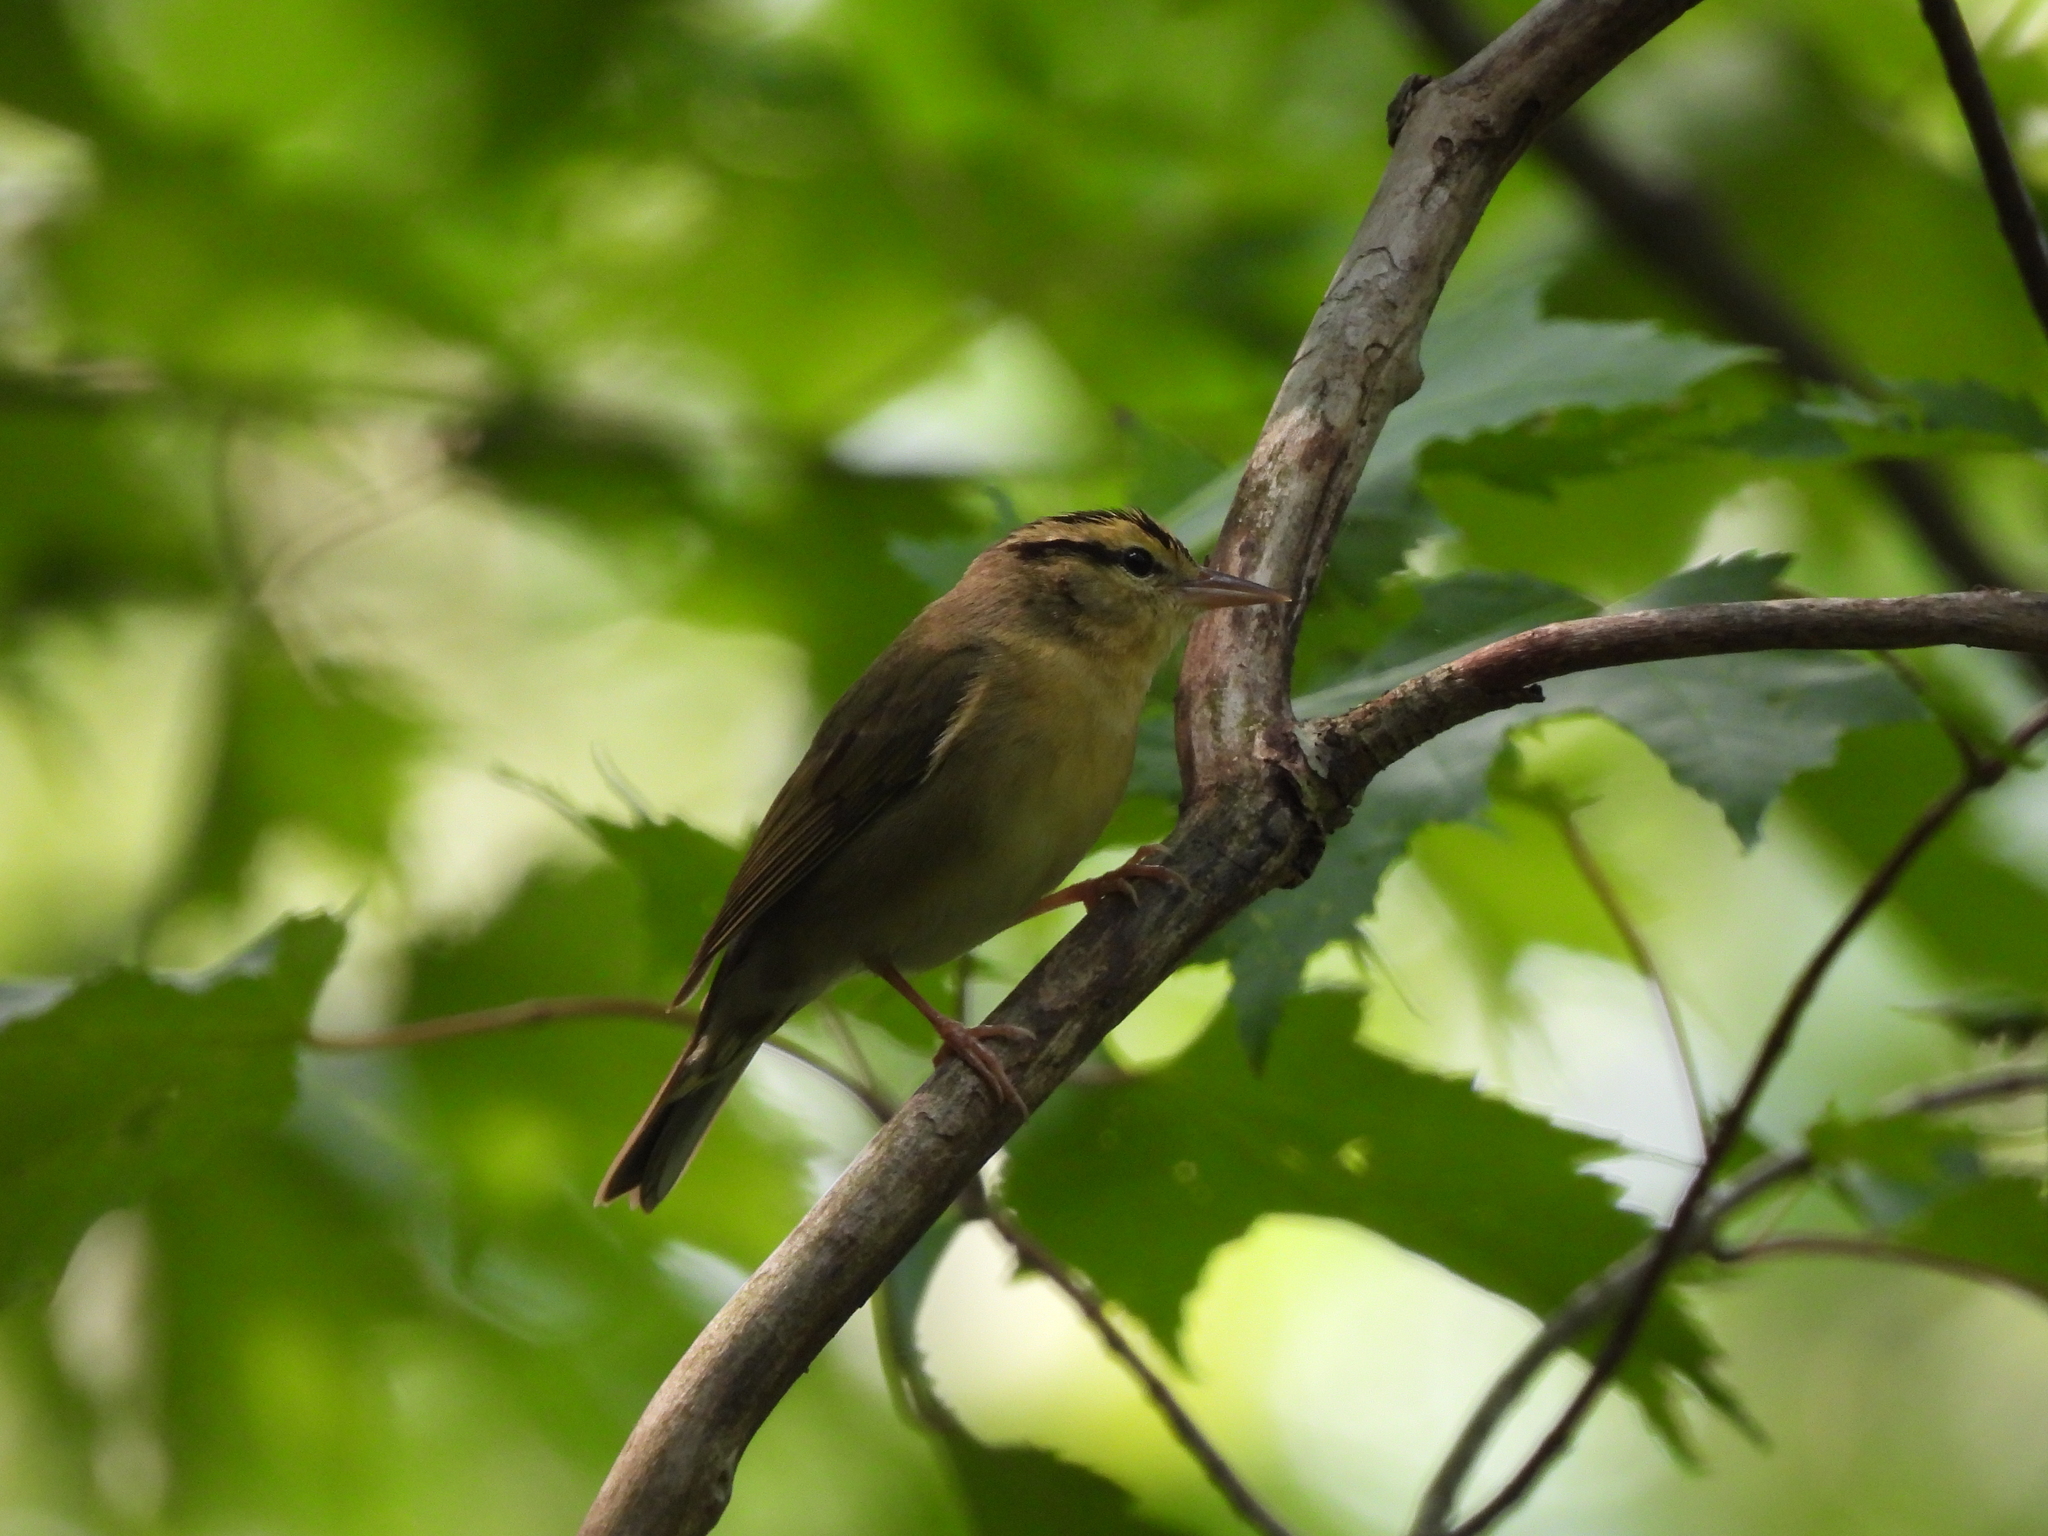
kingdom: Animalia
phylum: Chordata
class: Aves
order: Passeriformes
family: Parulidae
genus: Helmitheros
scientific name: Helmitheros vermivorum
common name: Worm-eating warbler
